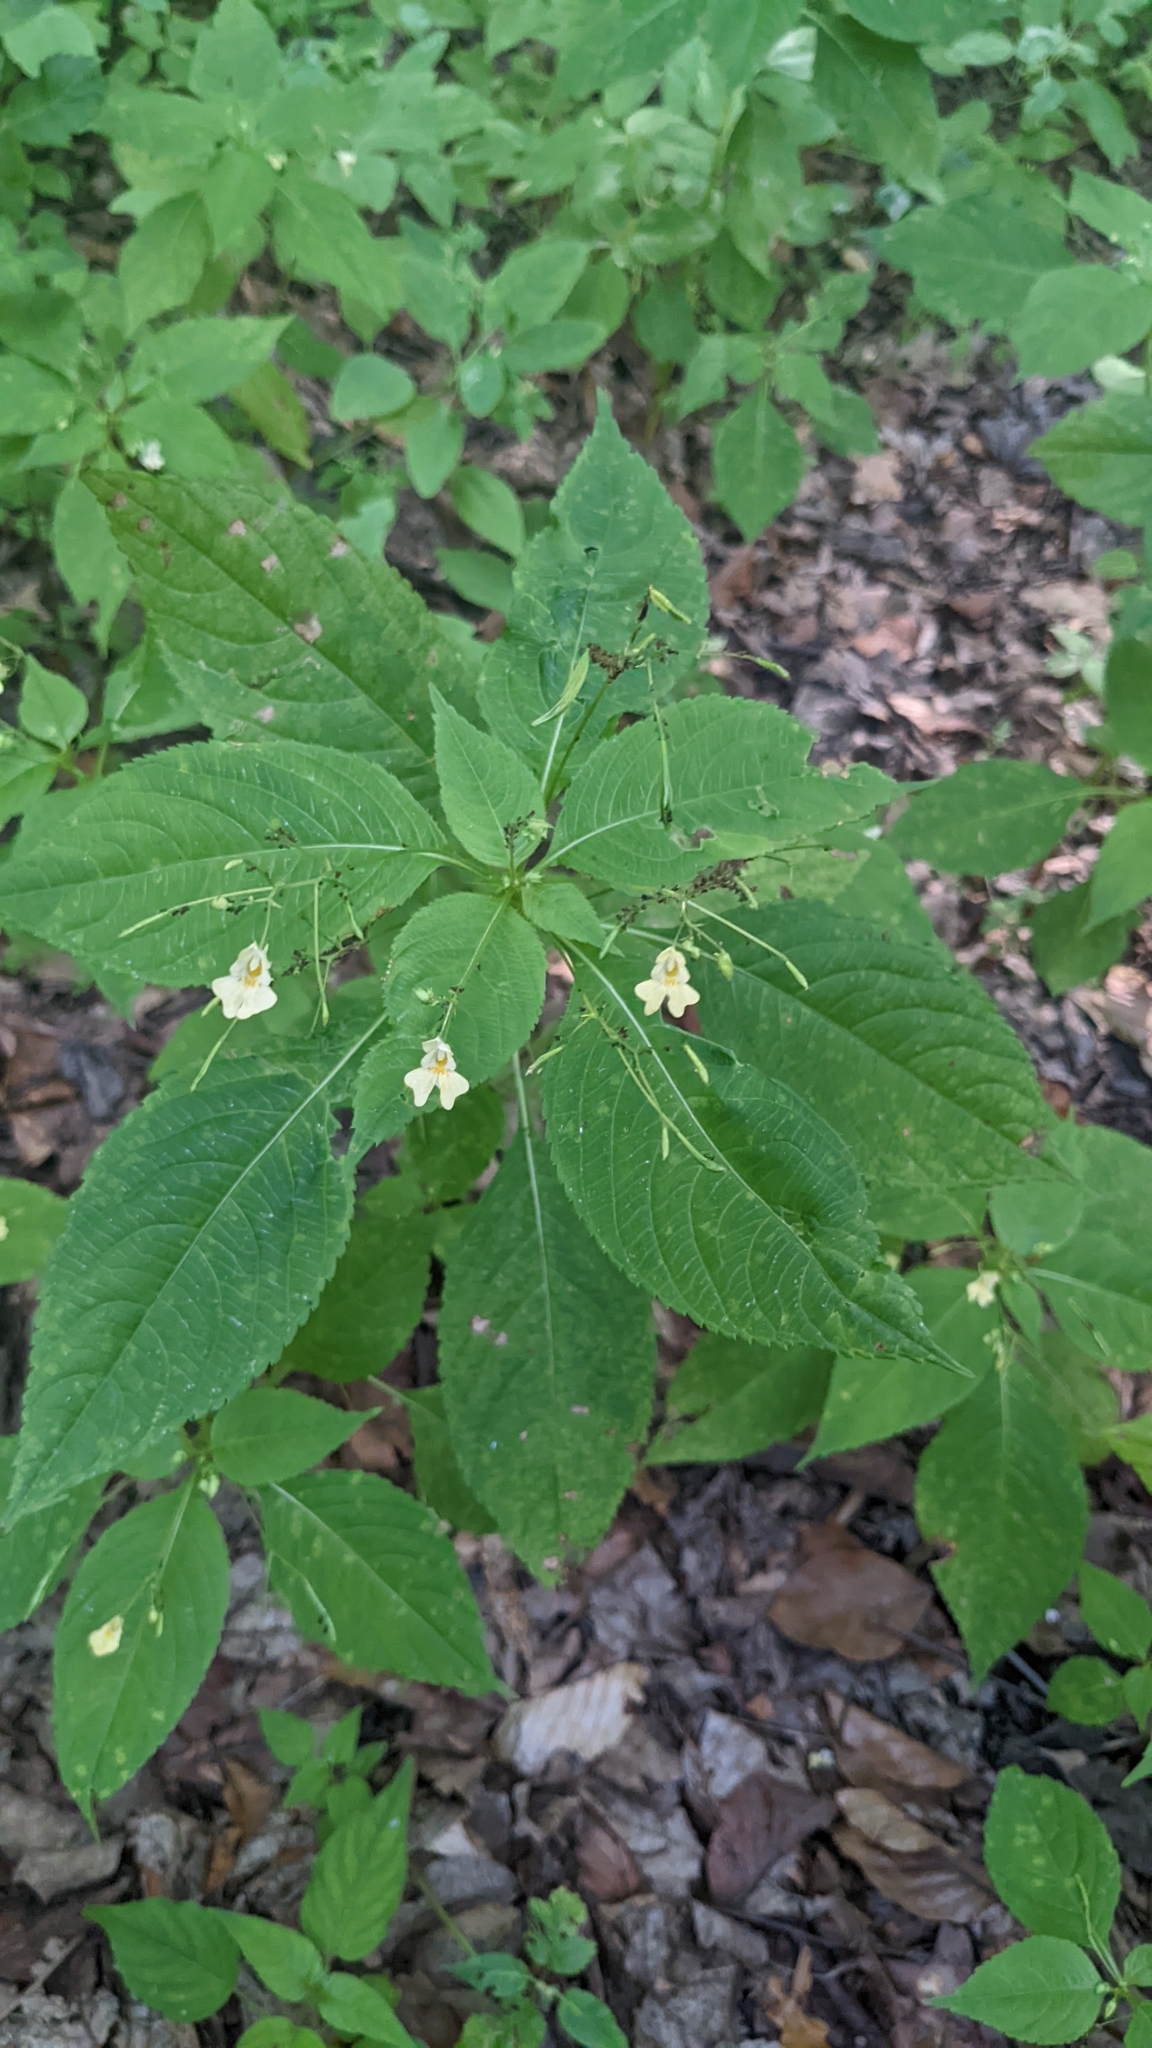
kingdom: Plantae
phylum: Tracheophyta
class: Magnoliopsida
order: Ericales
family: Balsaminaceae
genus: Impatiens
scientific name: Impatiens parviflora
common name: Small balsam
